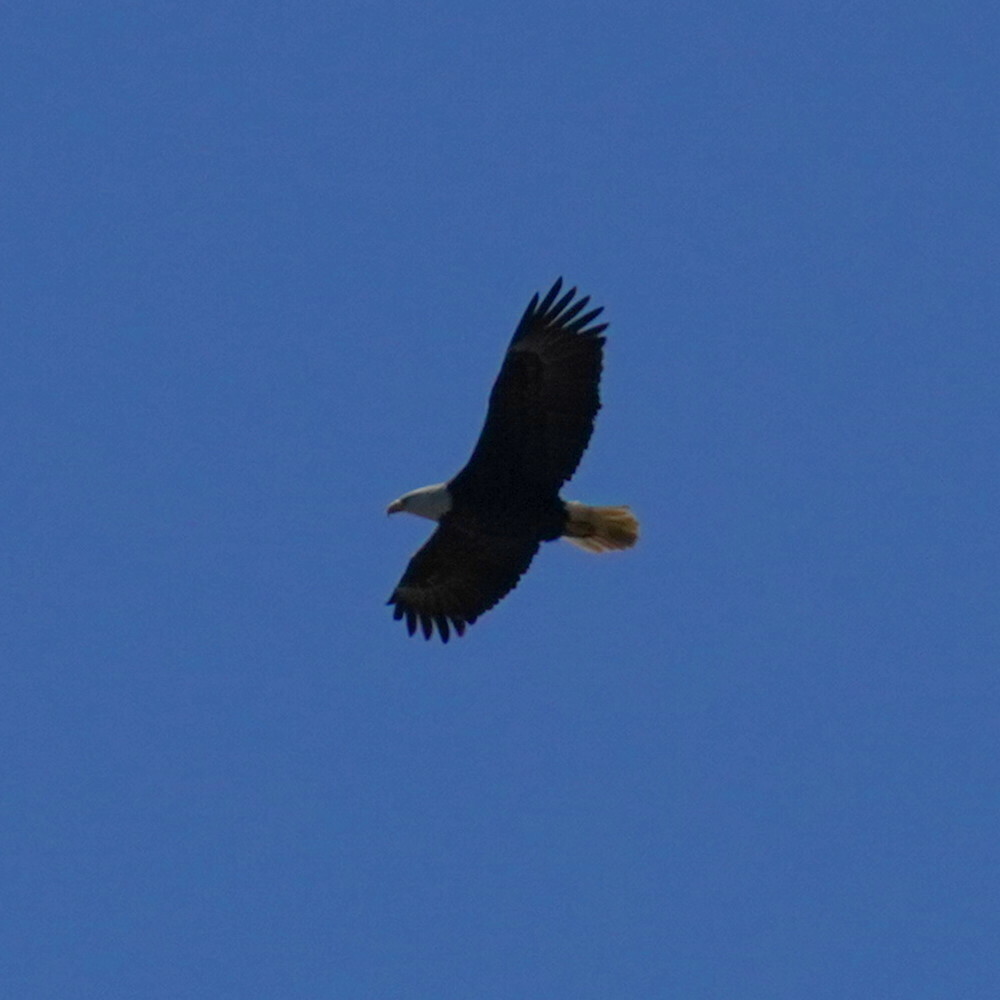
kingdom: Animalia
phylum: Chordata
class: Aves
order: Accipitriformes
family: Accipitridae
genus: Haliaeetus
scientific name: Haliaeetus leucocephalus
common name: Bald eagle
